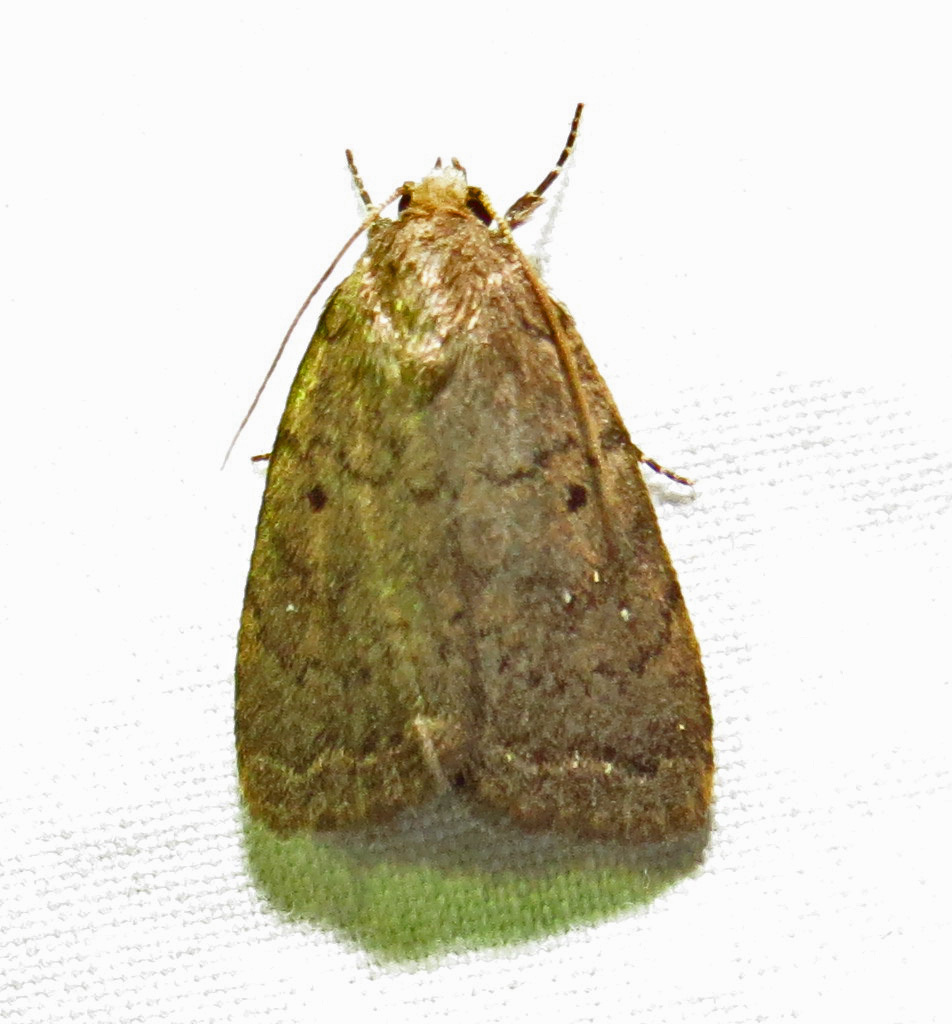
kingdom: Animalia
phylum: Arthropoda
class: Insecta
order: Lepidoptera
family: Noctuidae
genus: Athetis
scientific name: Athetis tarda
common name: Slowpoke moth
